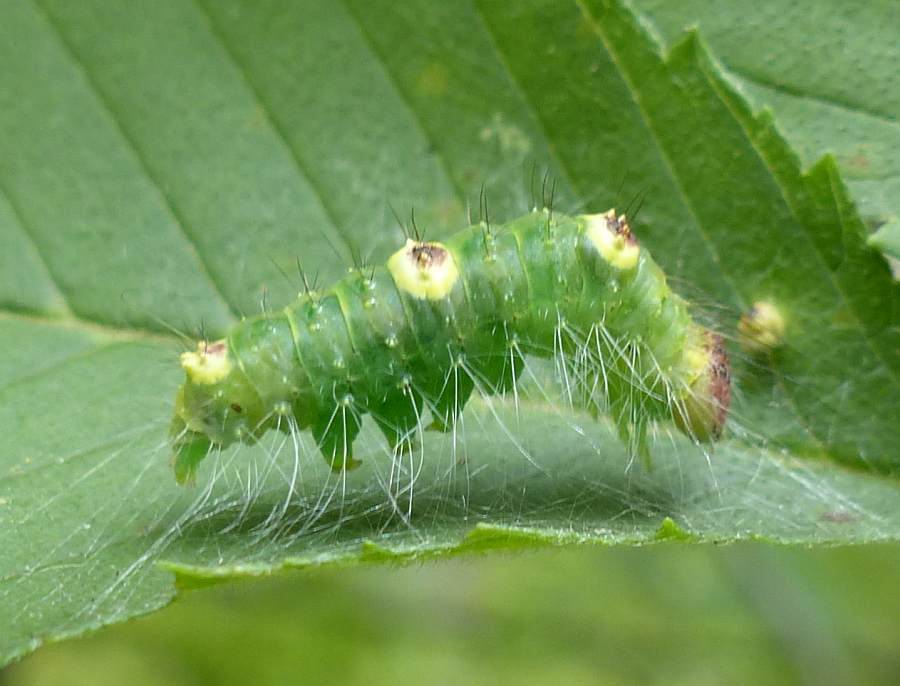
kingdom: Animalia
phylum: Arthropoda
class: Insecta
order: Lepidoptera
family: Noctuidae
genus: Acronicta
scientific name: Acronicta morula
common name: Ochre dagger
